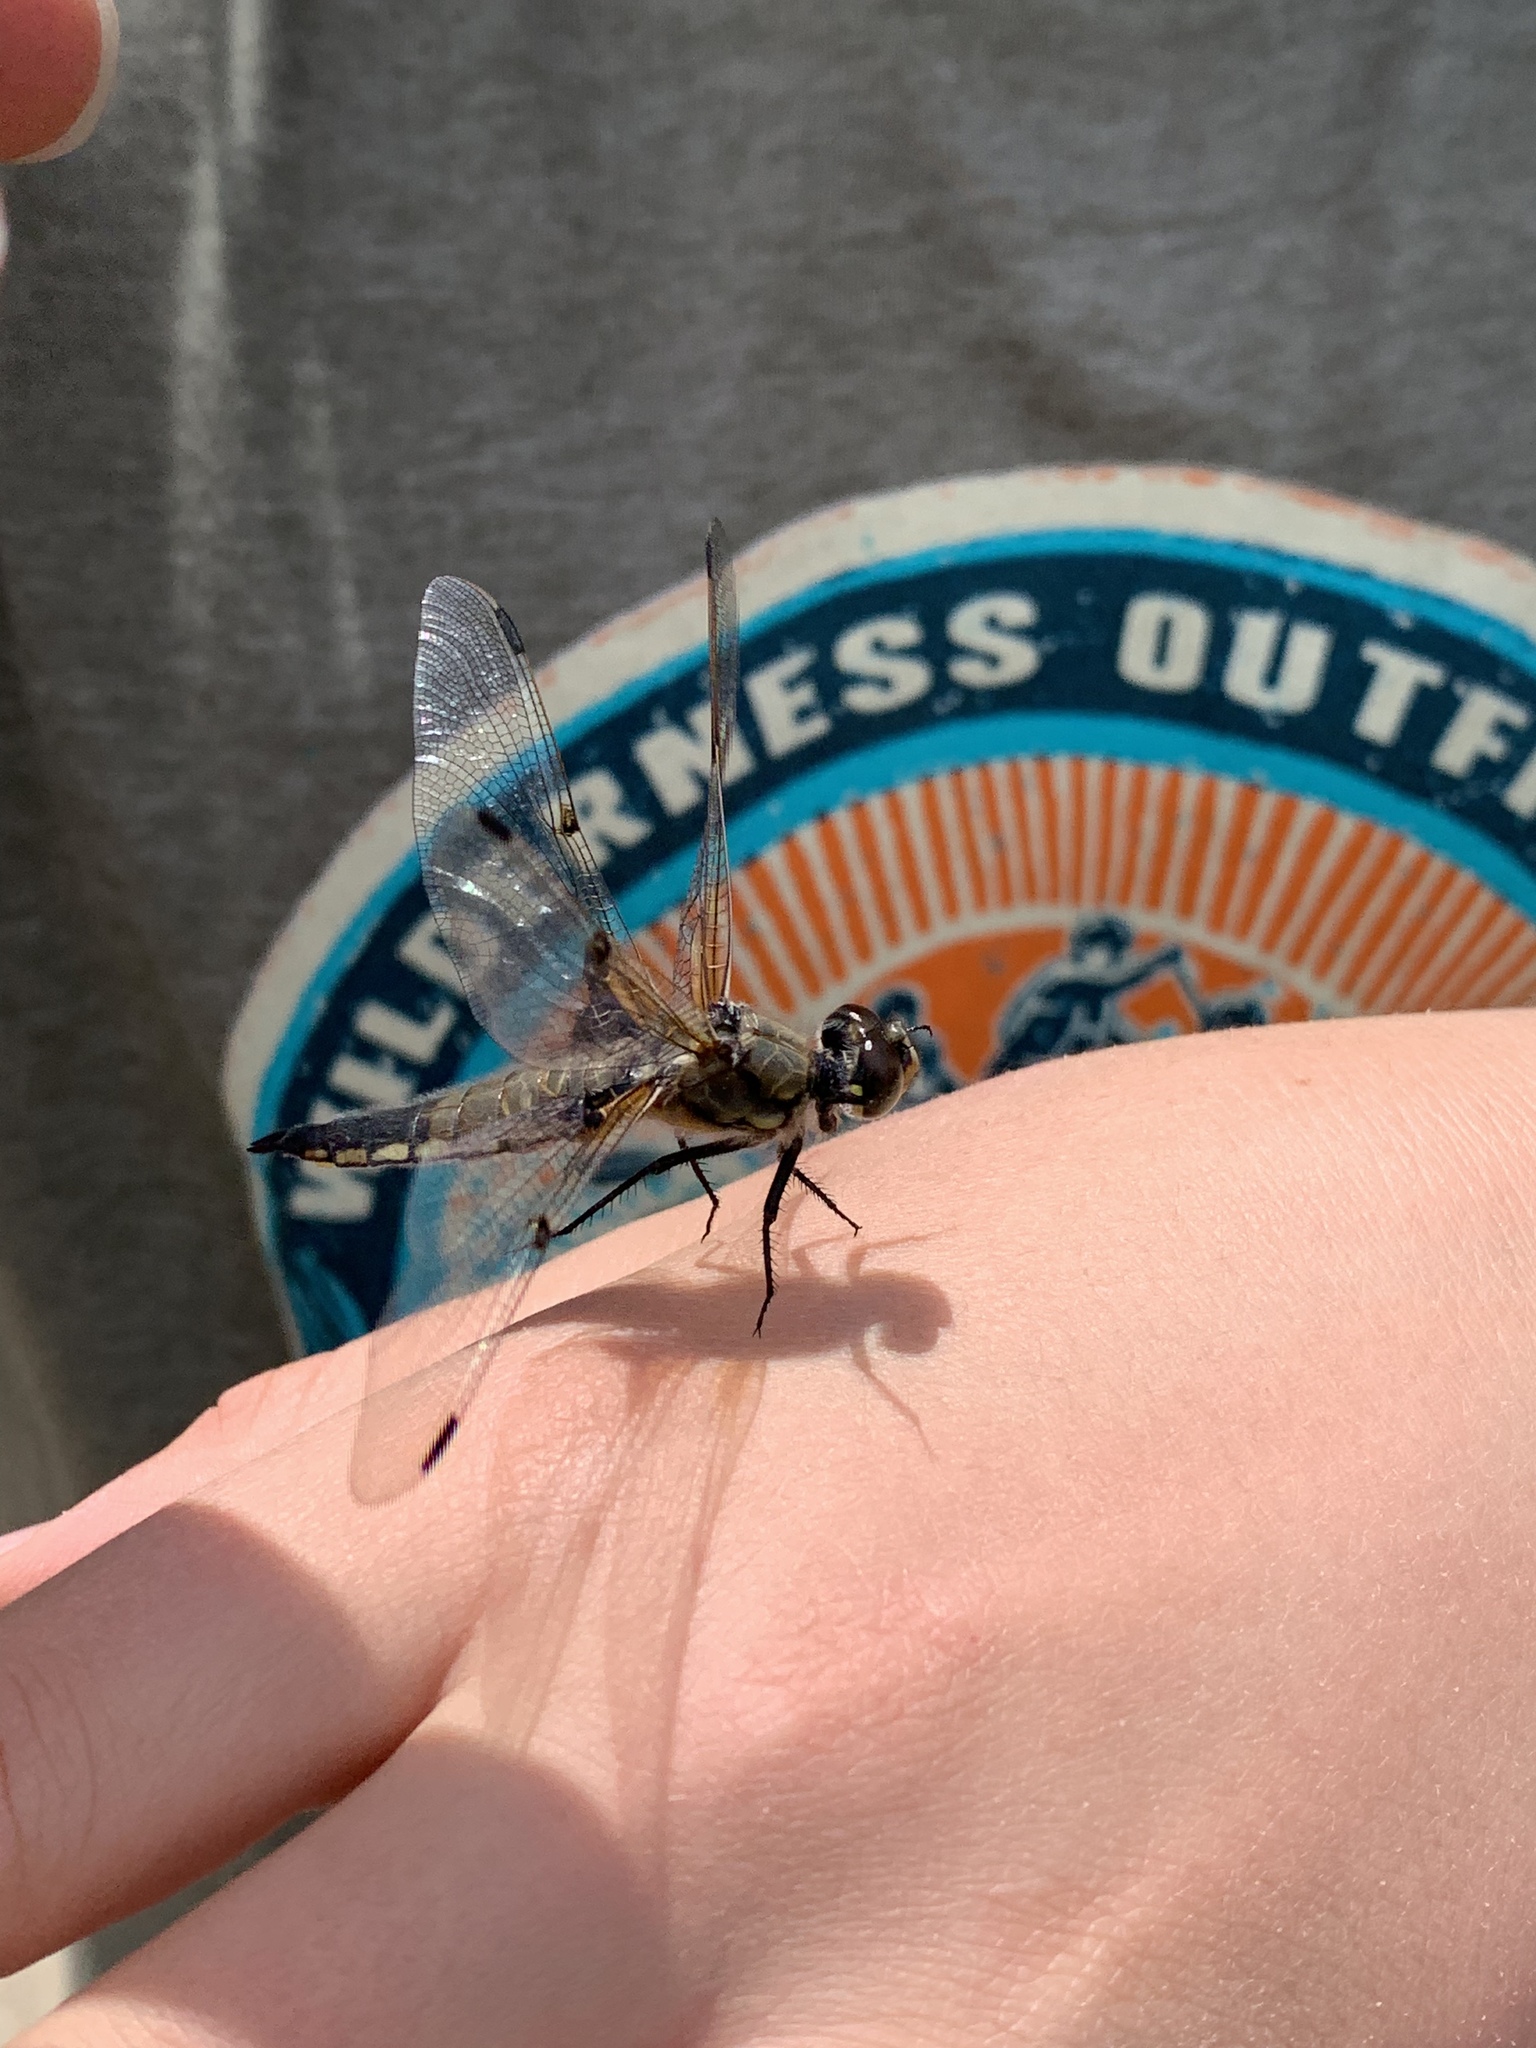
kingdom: Animalia
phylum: Arthropoda
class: Insecta
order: Odonata
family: Libellulidae
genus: Libellula
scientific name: Libellula quadrimaculata
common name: Four-spotted chaser
